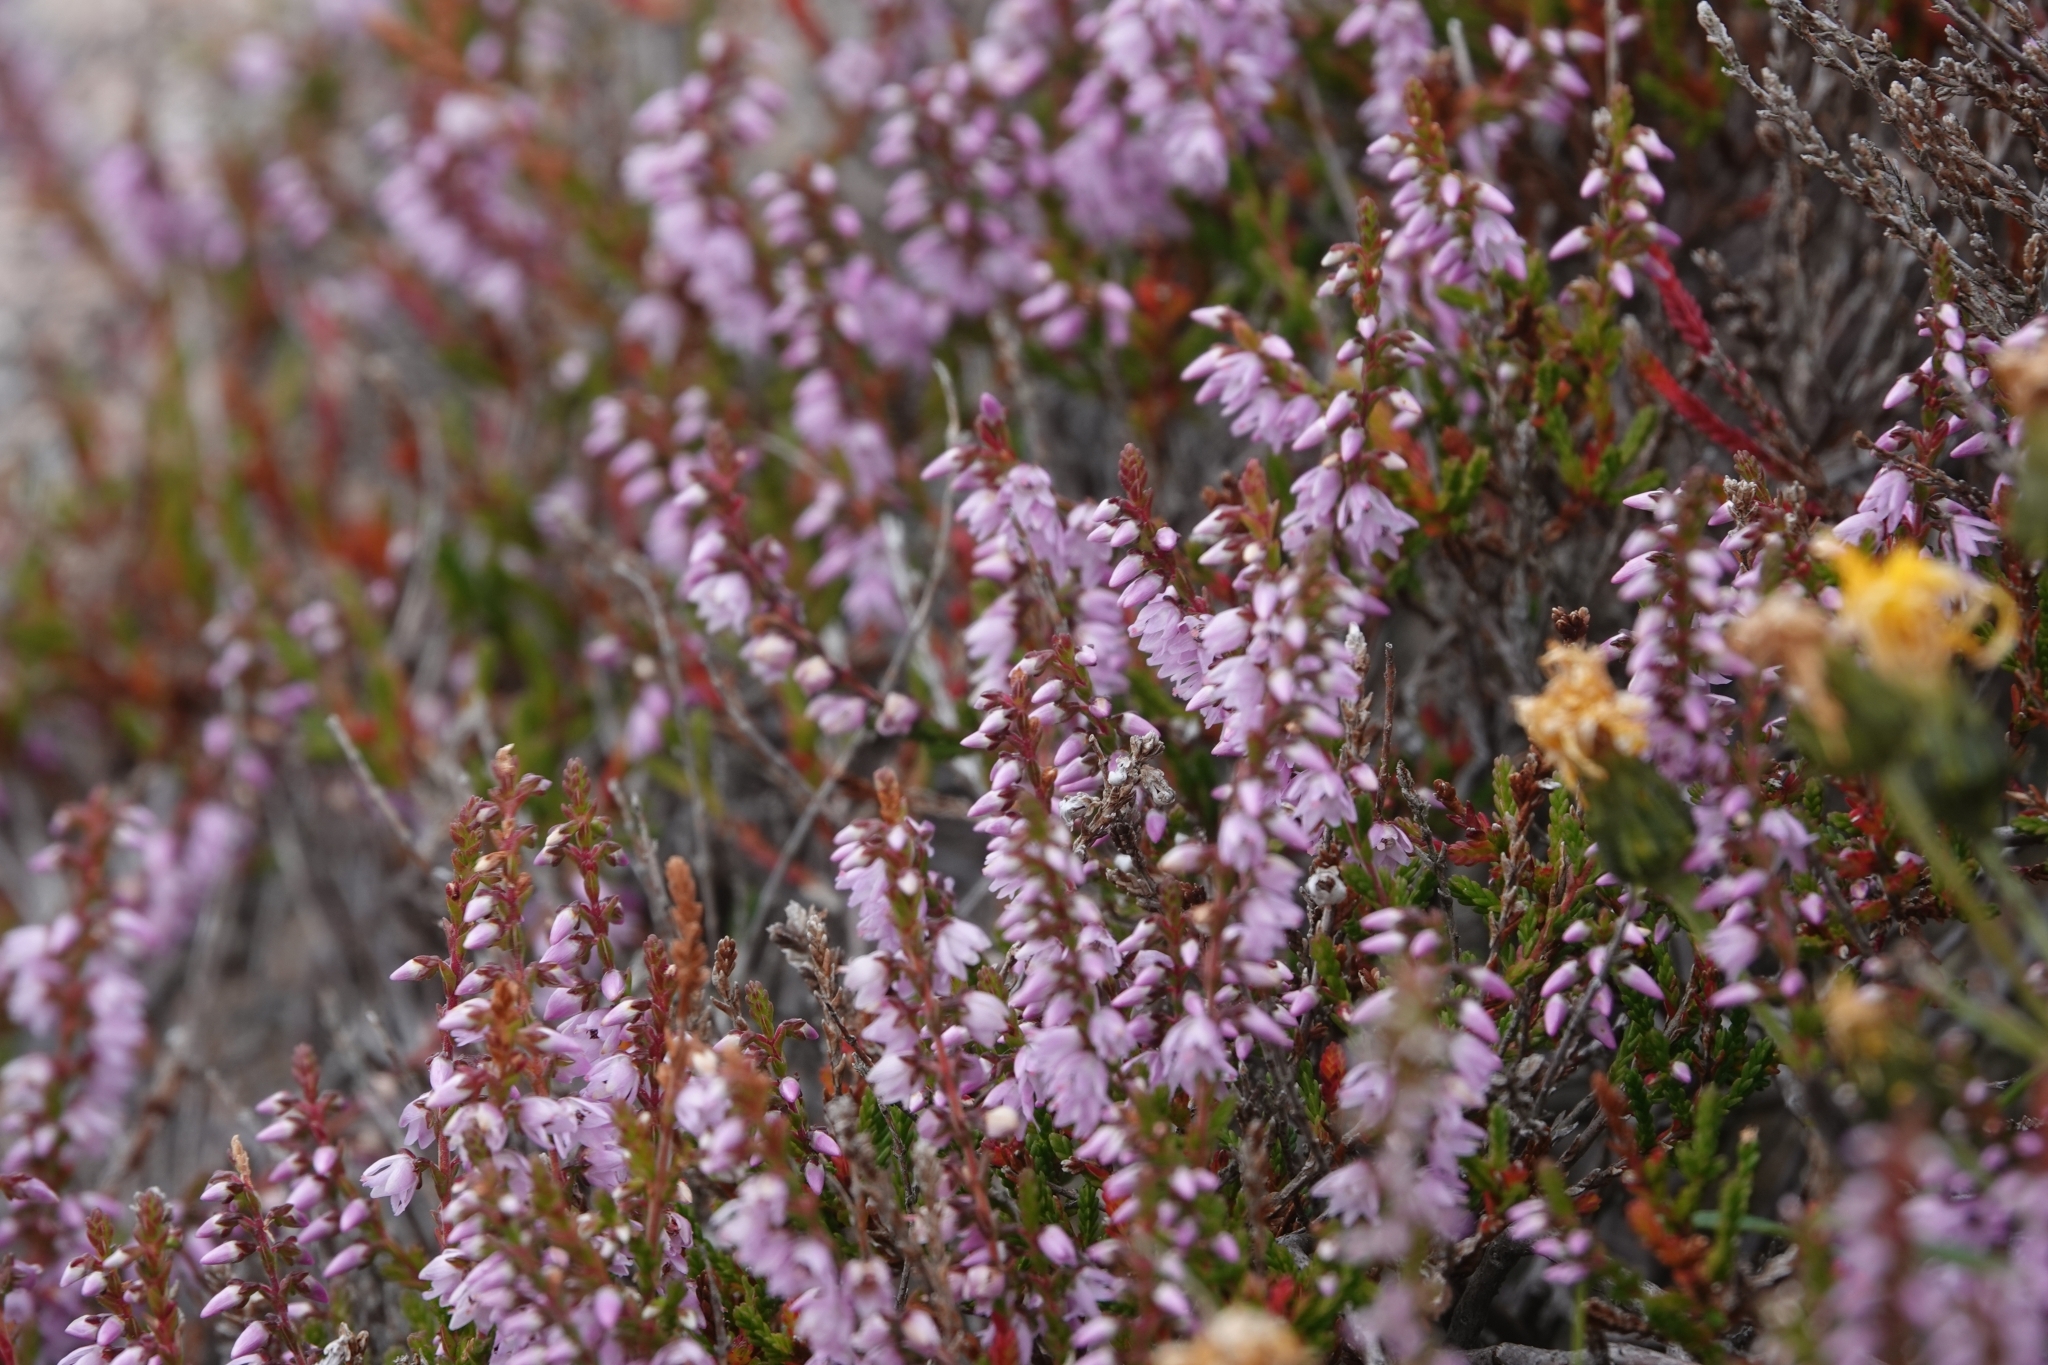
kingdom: Plantae
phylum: Tracheophyta
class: Magnoliopsida
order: Ericales
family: Ericaceae
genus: Calluna
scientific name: Calluna vulgaris
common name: Heather
